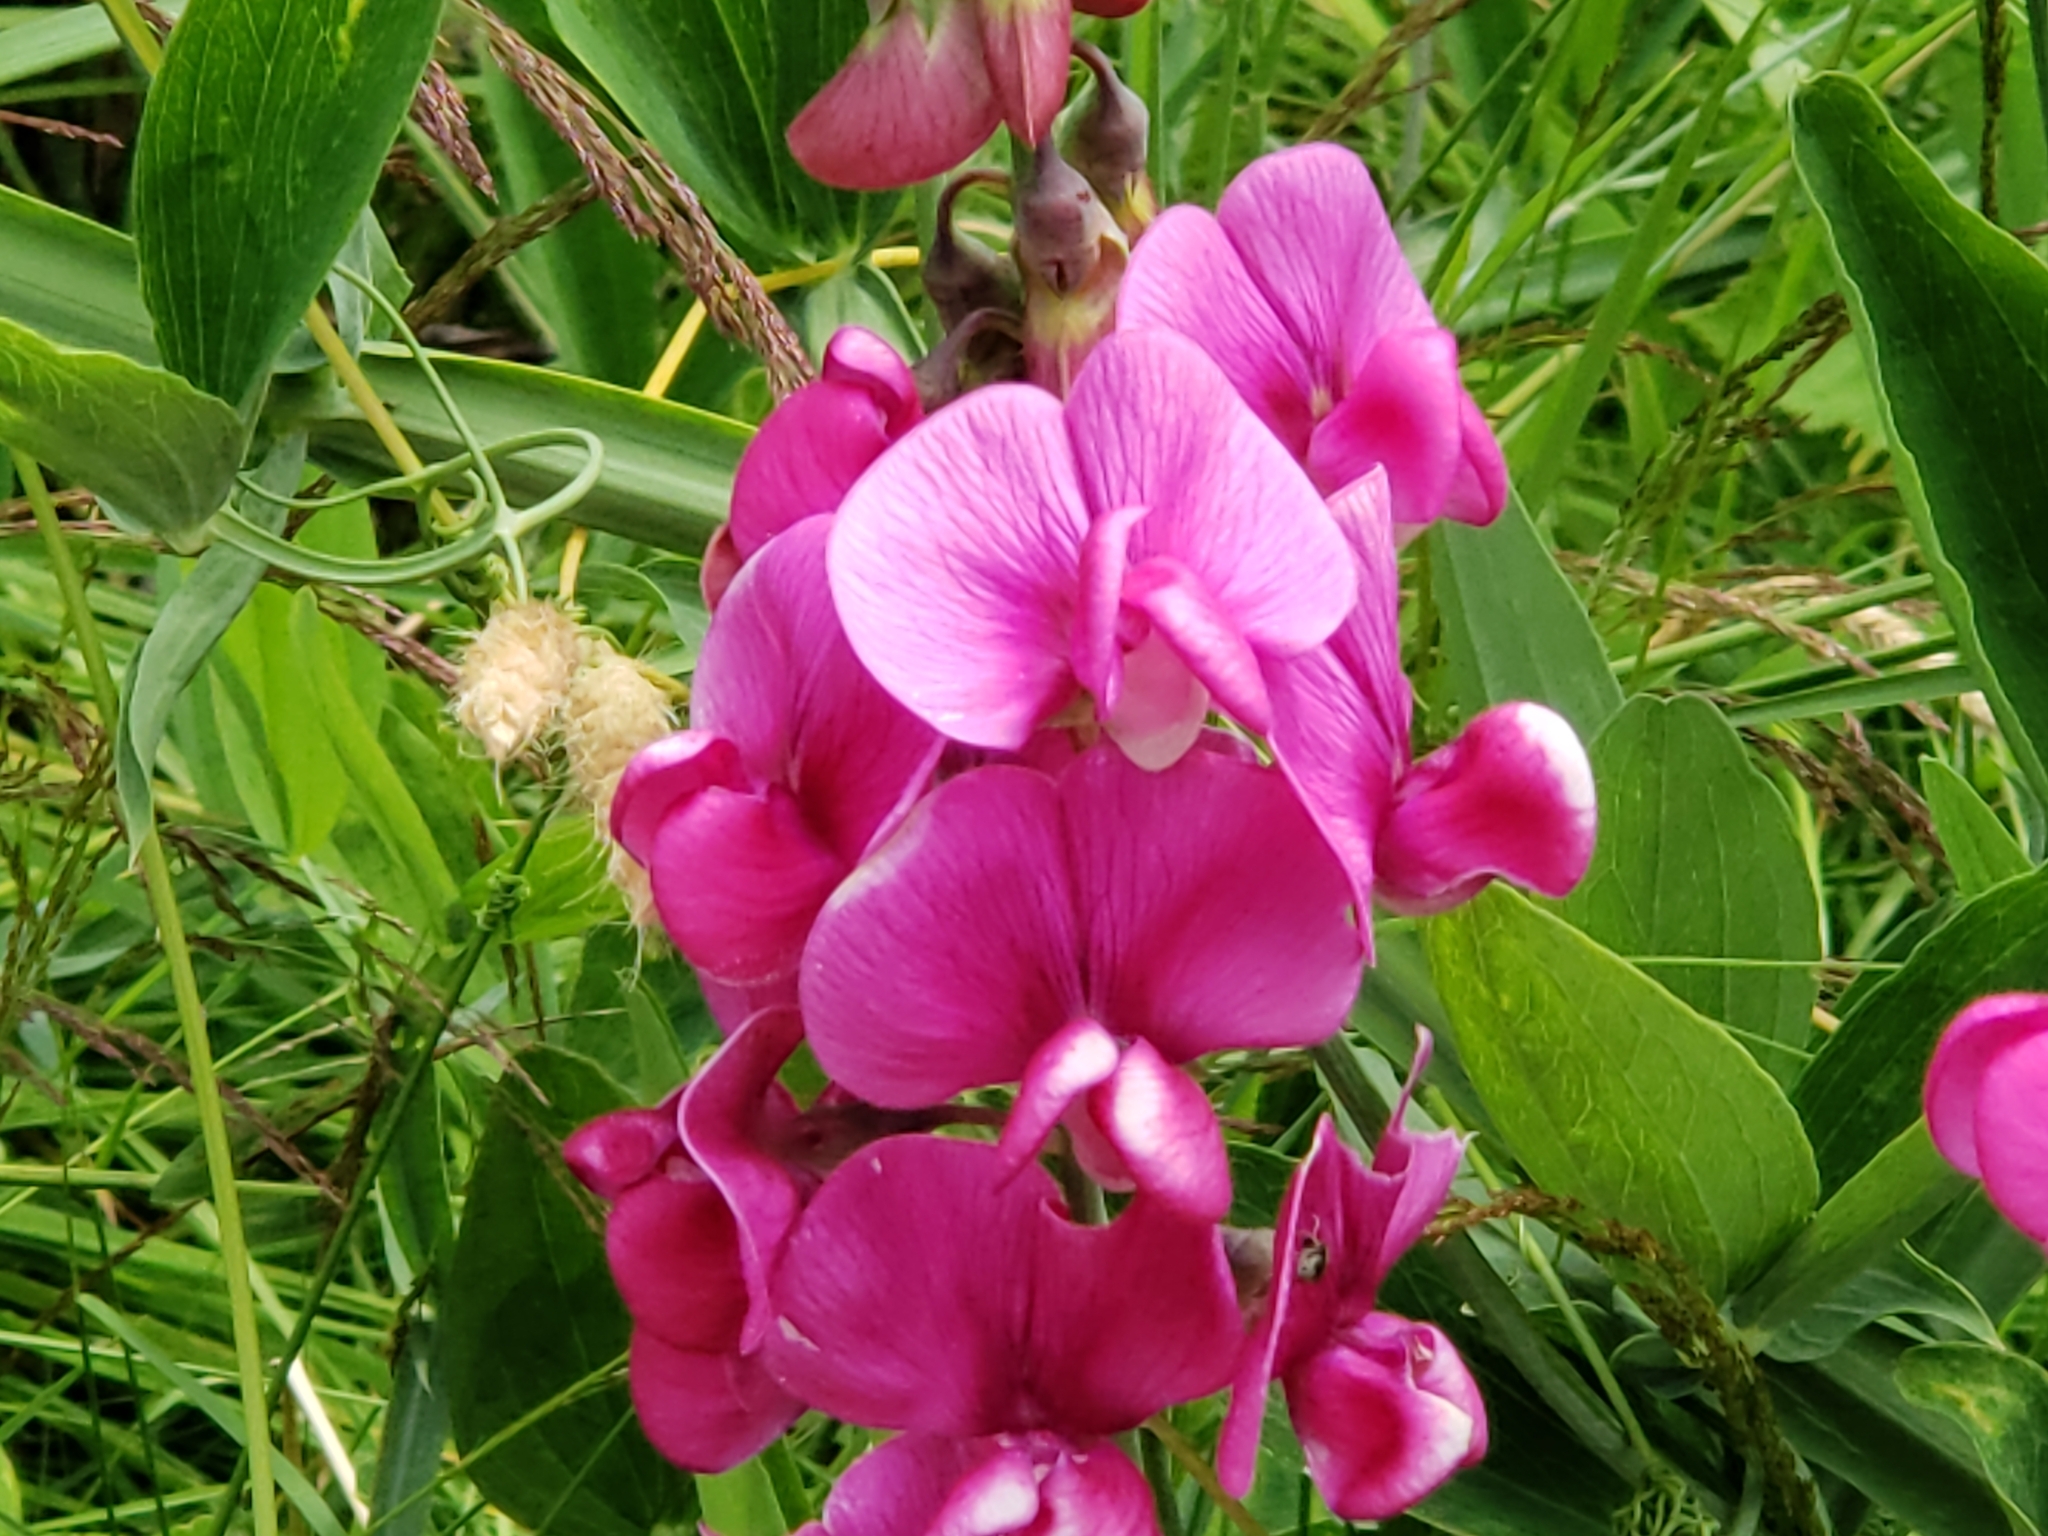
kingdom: Plantae
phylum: Tracheophyta
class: Magnoliopsida
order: Fabales
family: Fabaceae
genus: Lathyrus
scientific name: Lathyrus latifolius
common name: Perennial pea
